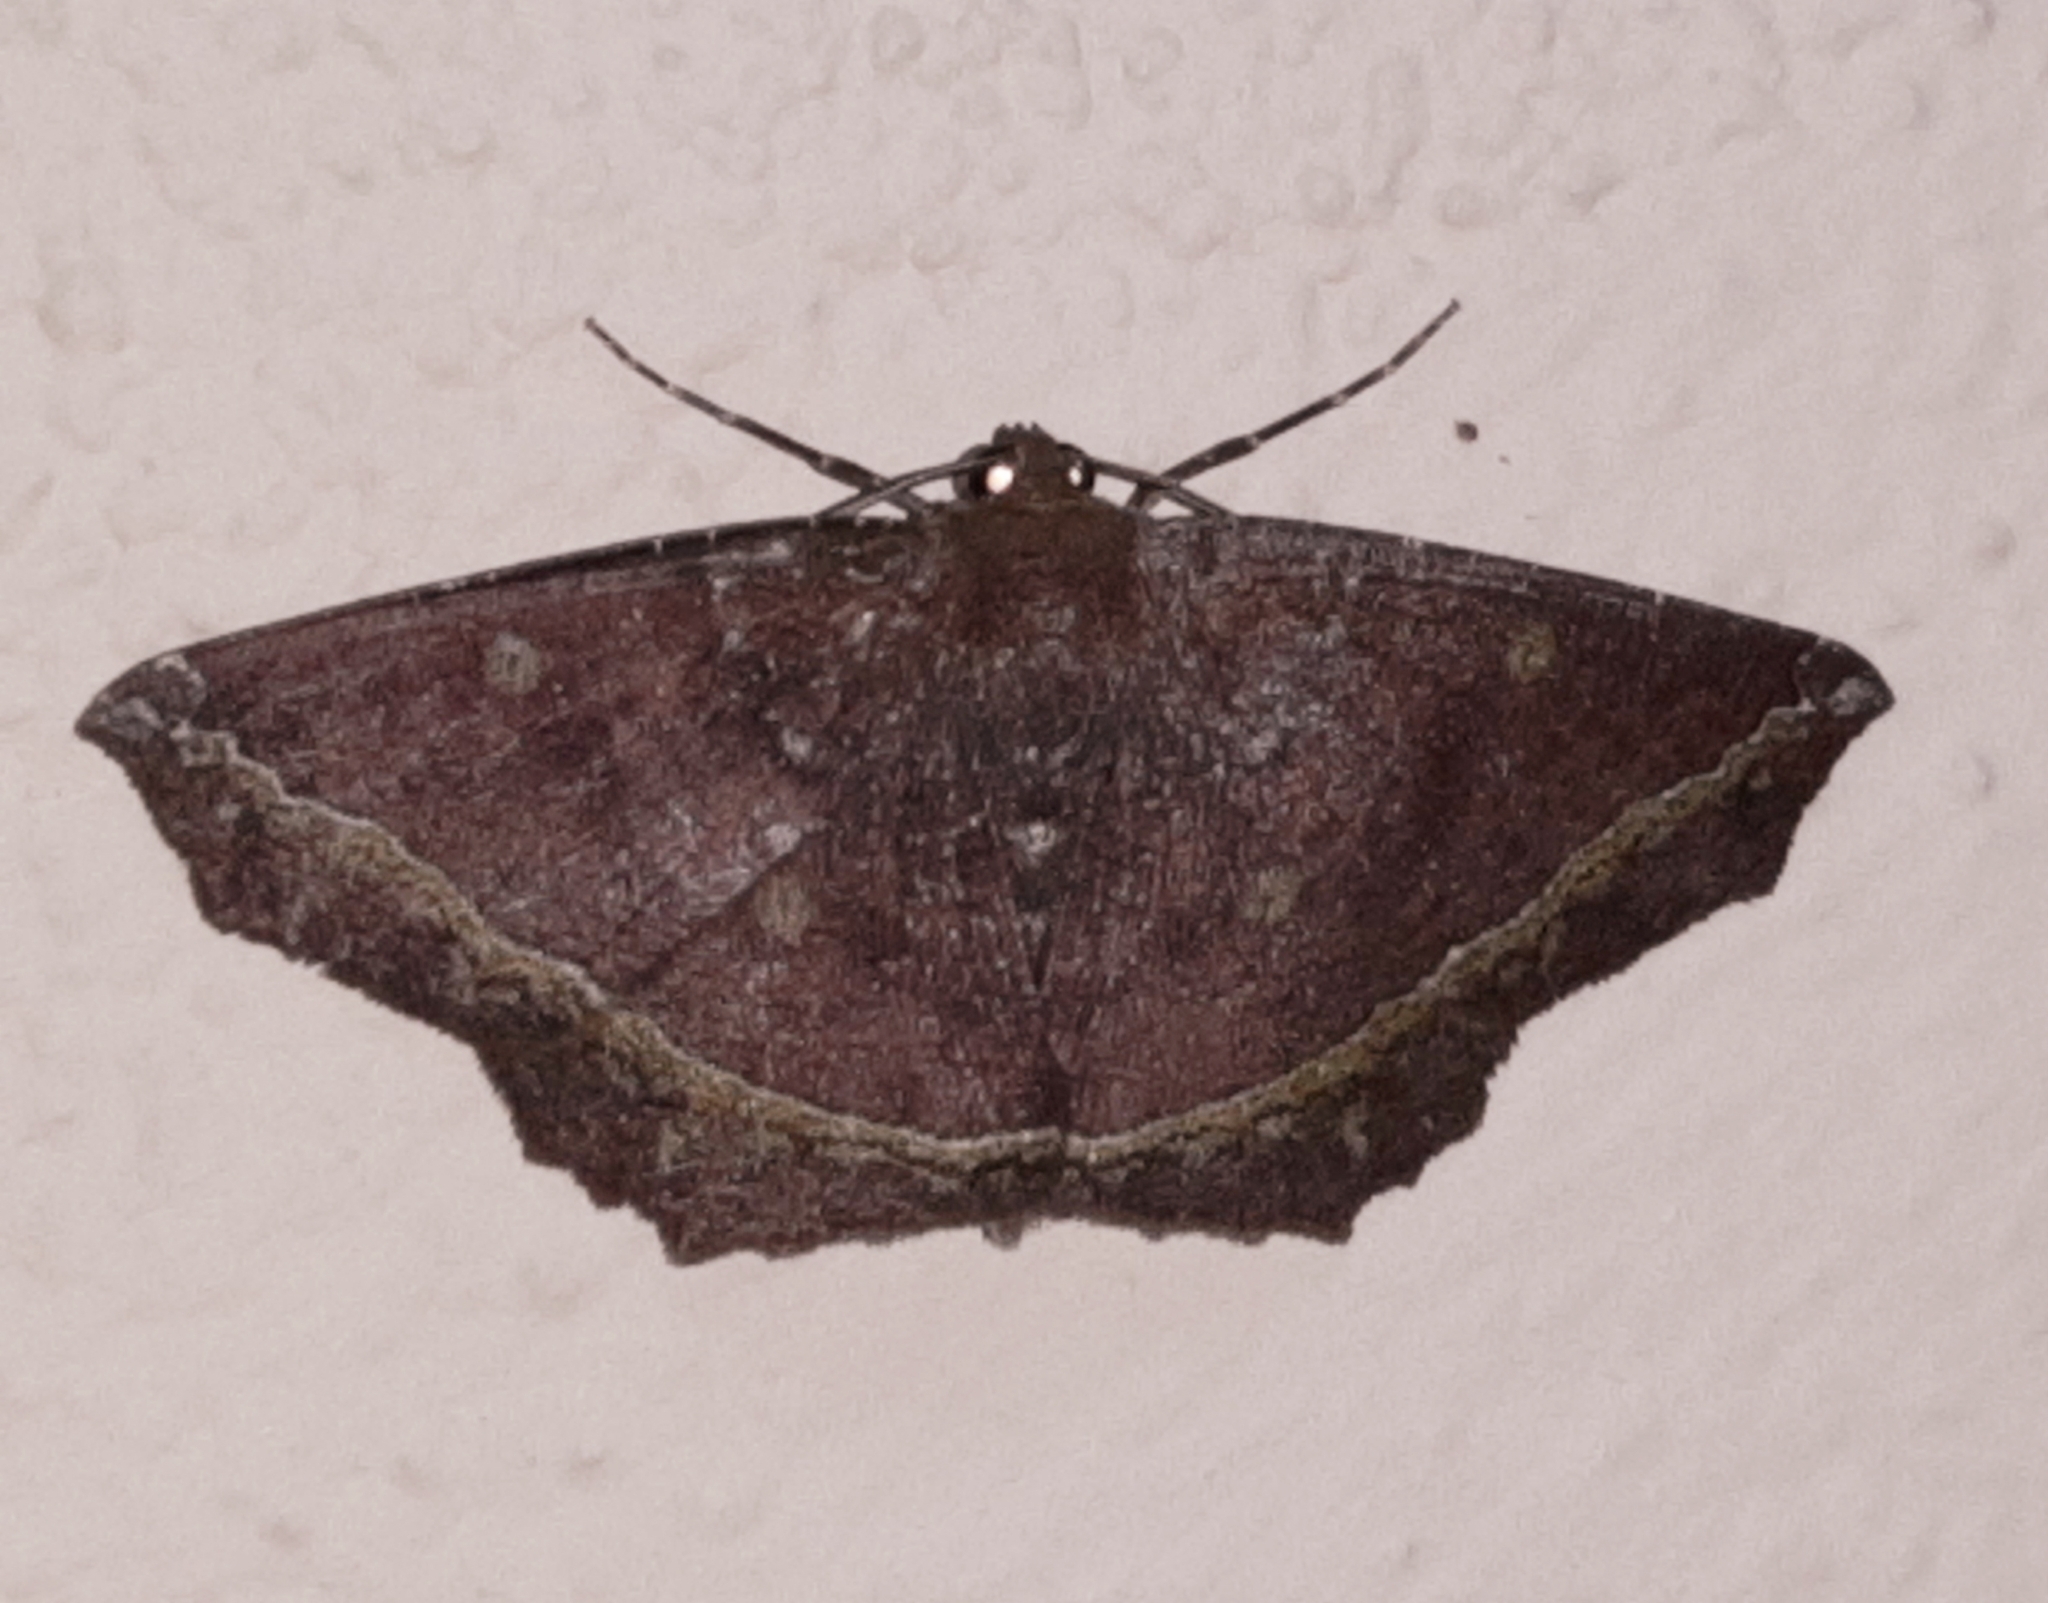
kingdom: Animalia
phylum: Arthropoda
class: Insecta
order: Lepidoptera
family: Geometridae
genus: Synnomos
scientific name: Synnomos firmamentaria
